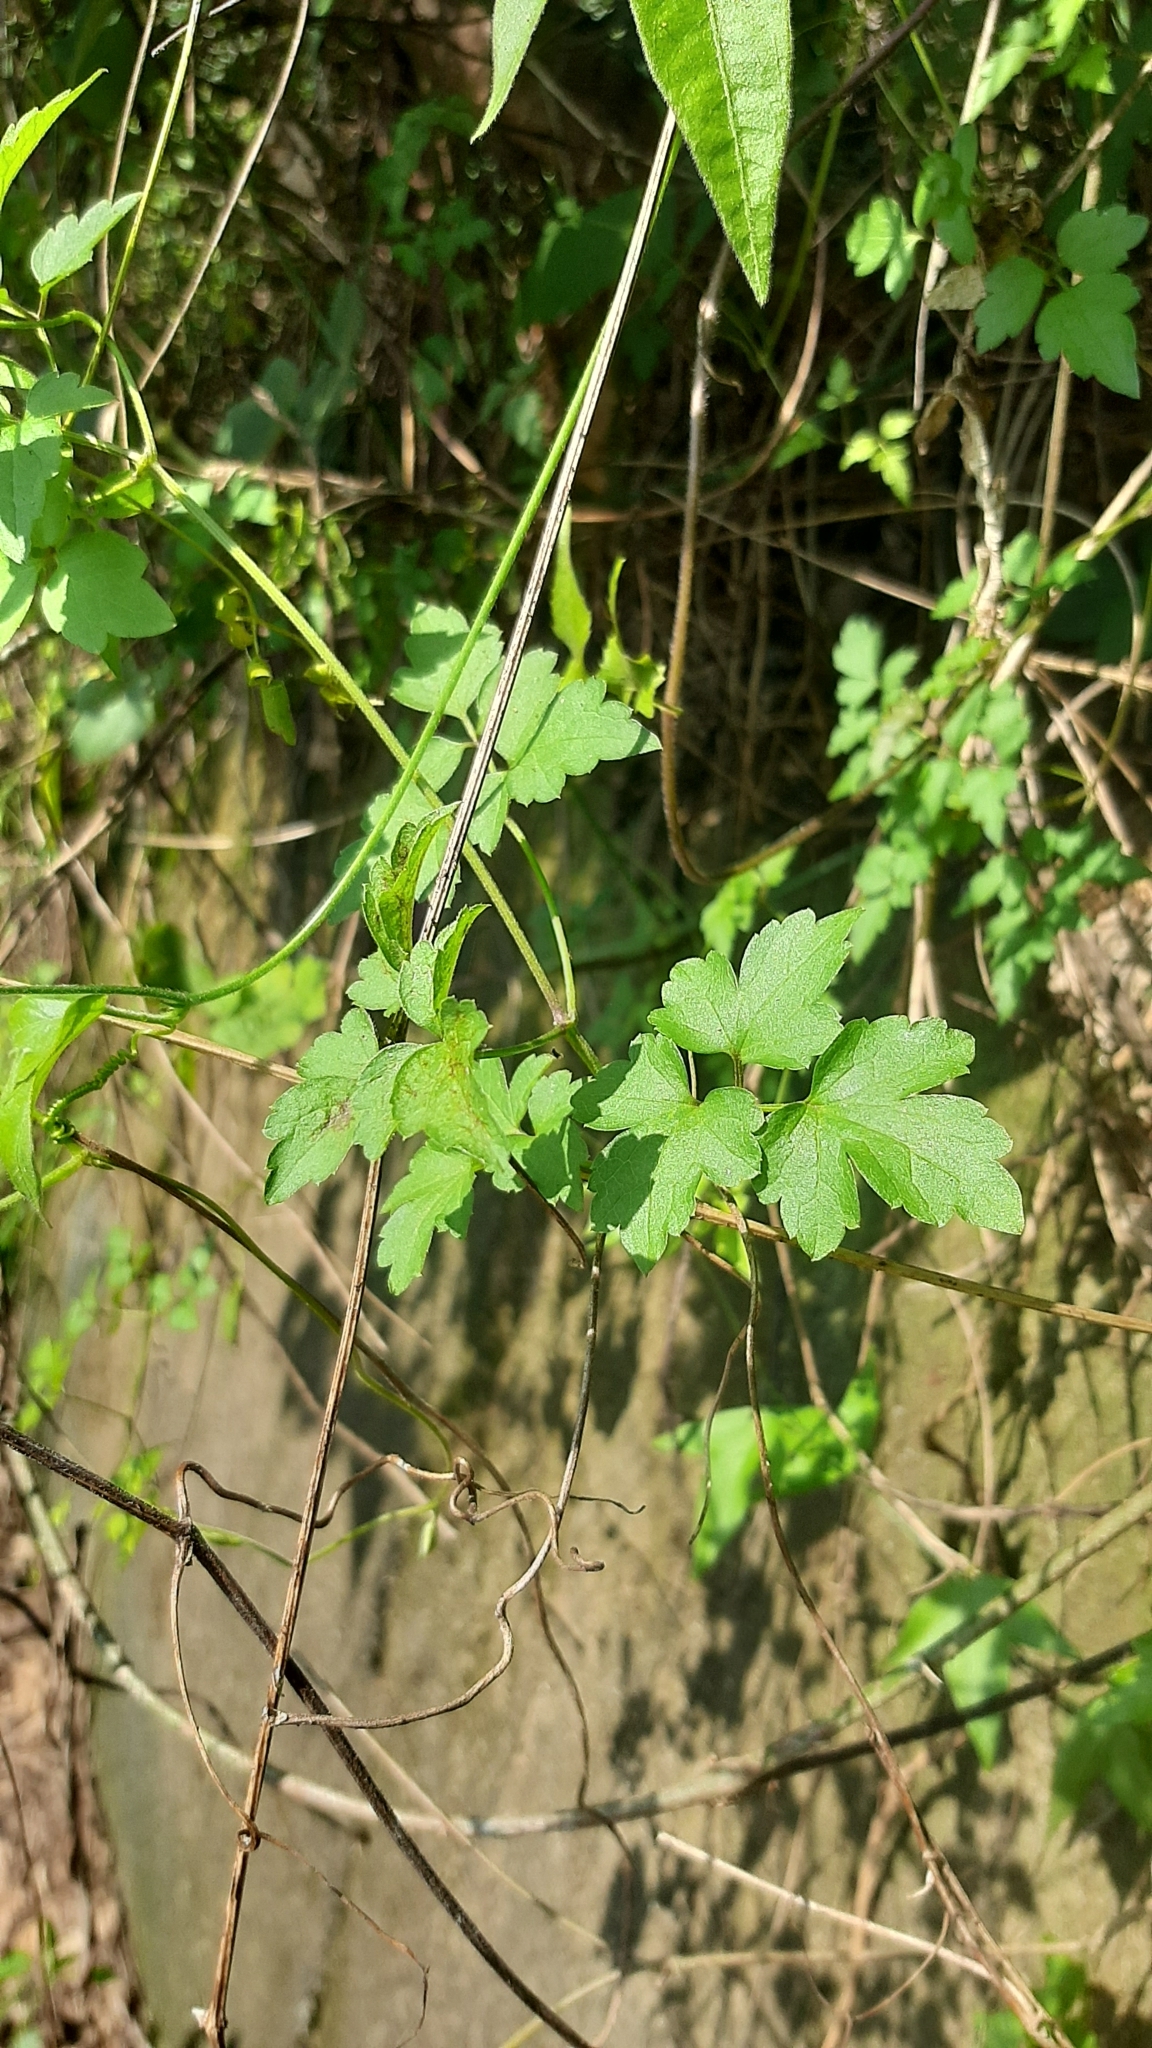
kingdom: Plantae
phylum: Tracheophyta
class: Magnoliopsida
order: Ranunculales
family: Ranunculaceae
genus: Clematis
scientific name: Clematis grata
